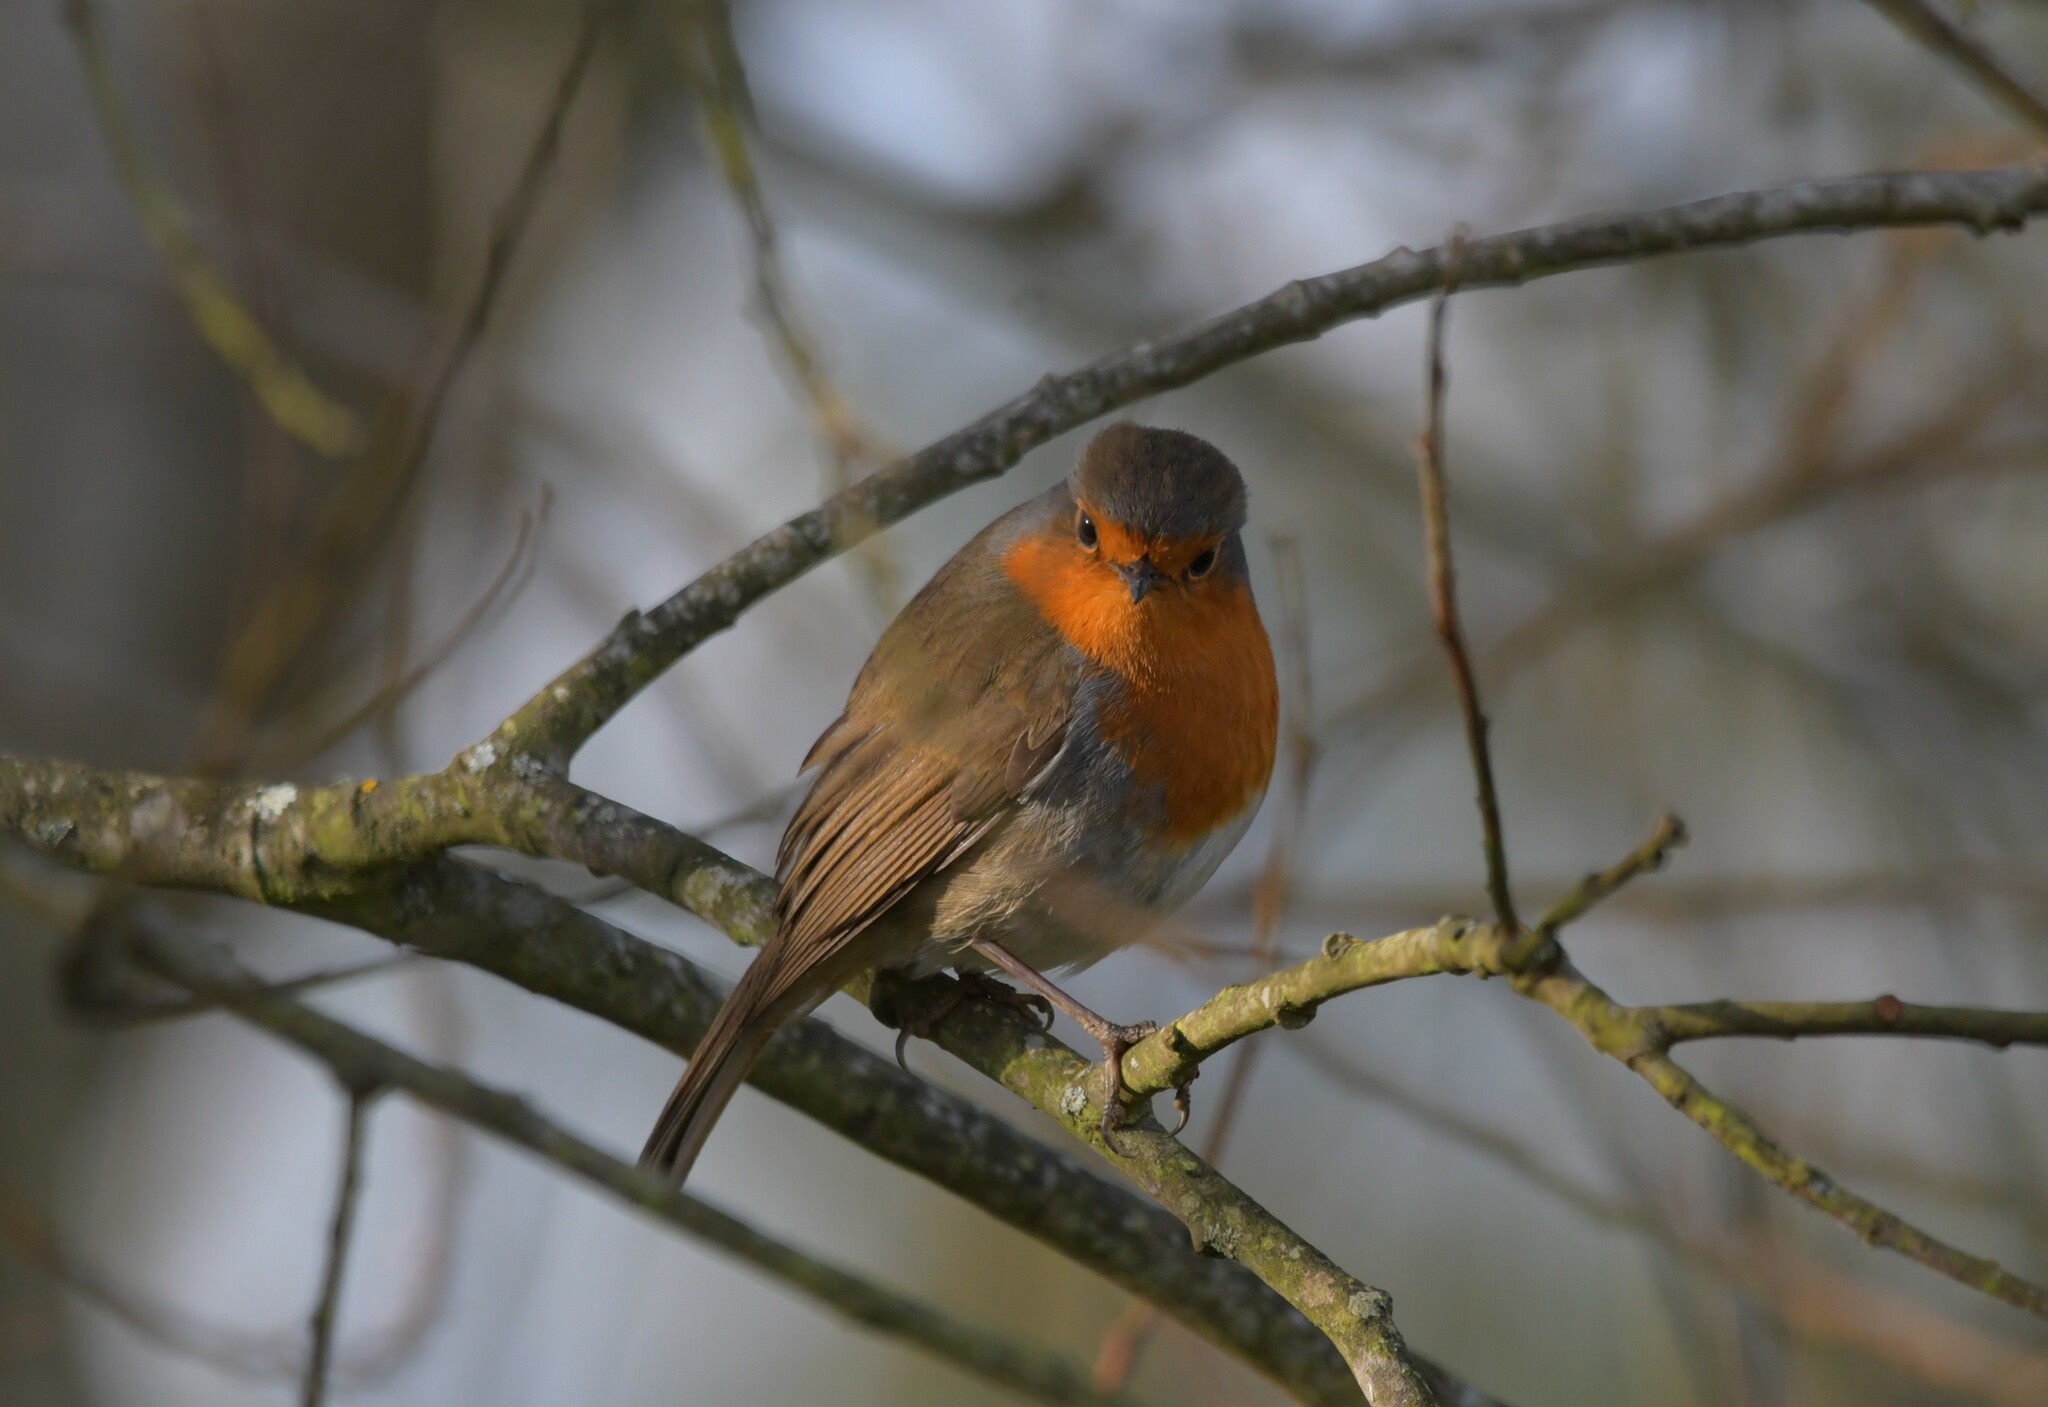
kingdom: Animalia
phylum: Chordata
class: Aves
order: Passeriformes
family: Muscicapidae
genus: Erithacus
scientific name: Erithacus rubecula
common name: European robin
